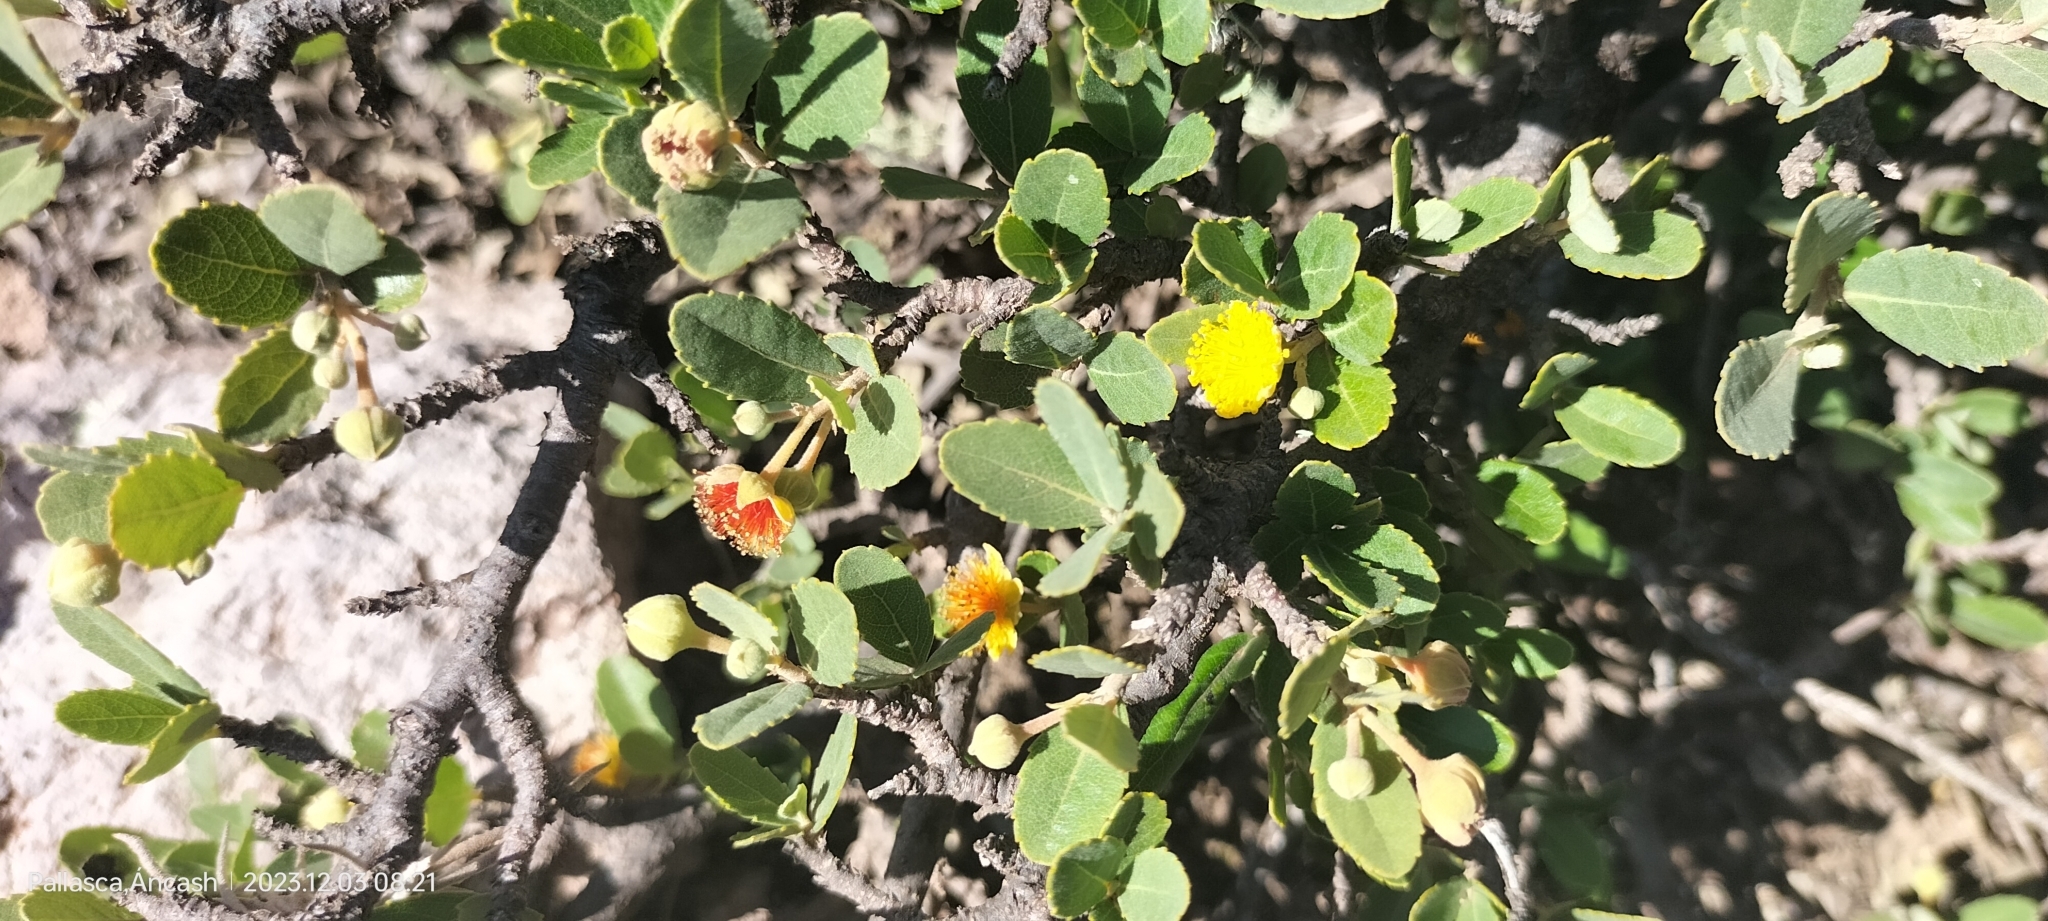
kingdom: Plantae
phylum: Tracheophyta
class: Magnoliopsida
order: Malpighiales
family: Salicaceae
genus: Pineda
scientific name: Pineda incana
